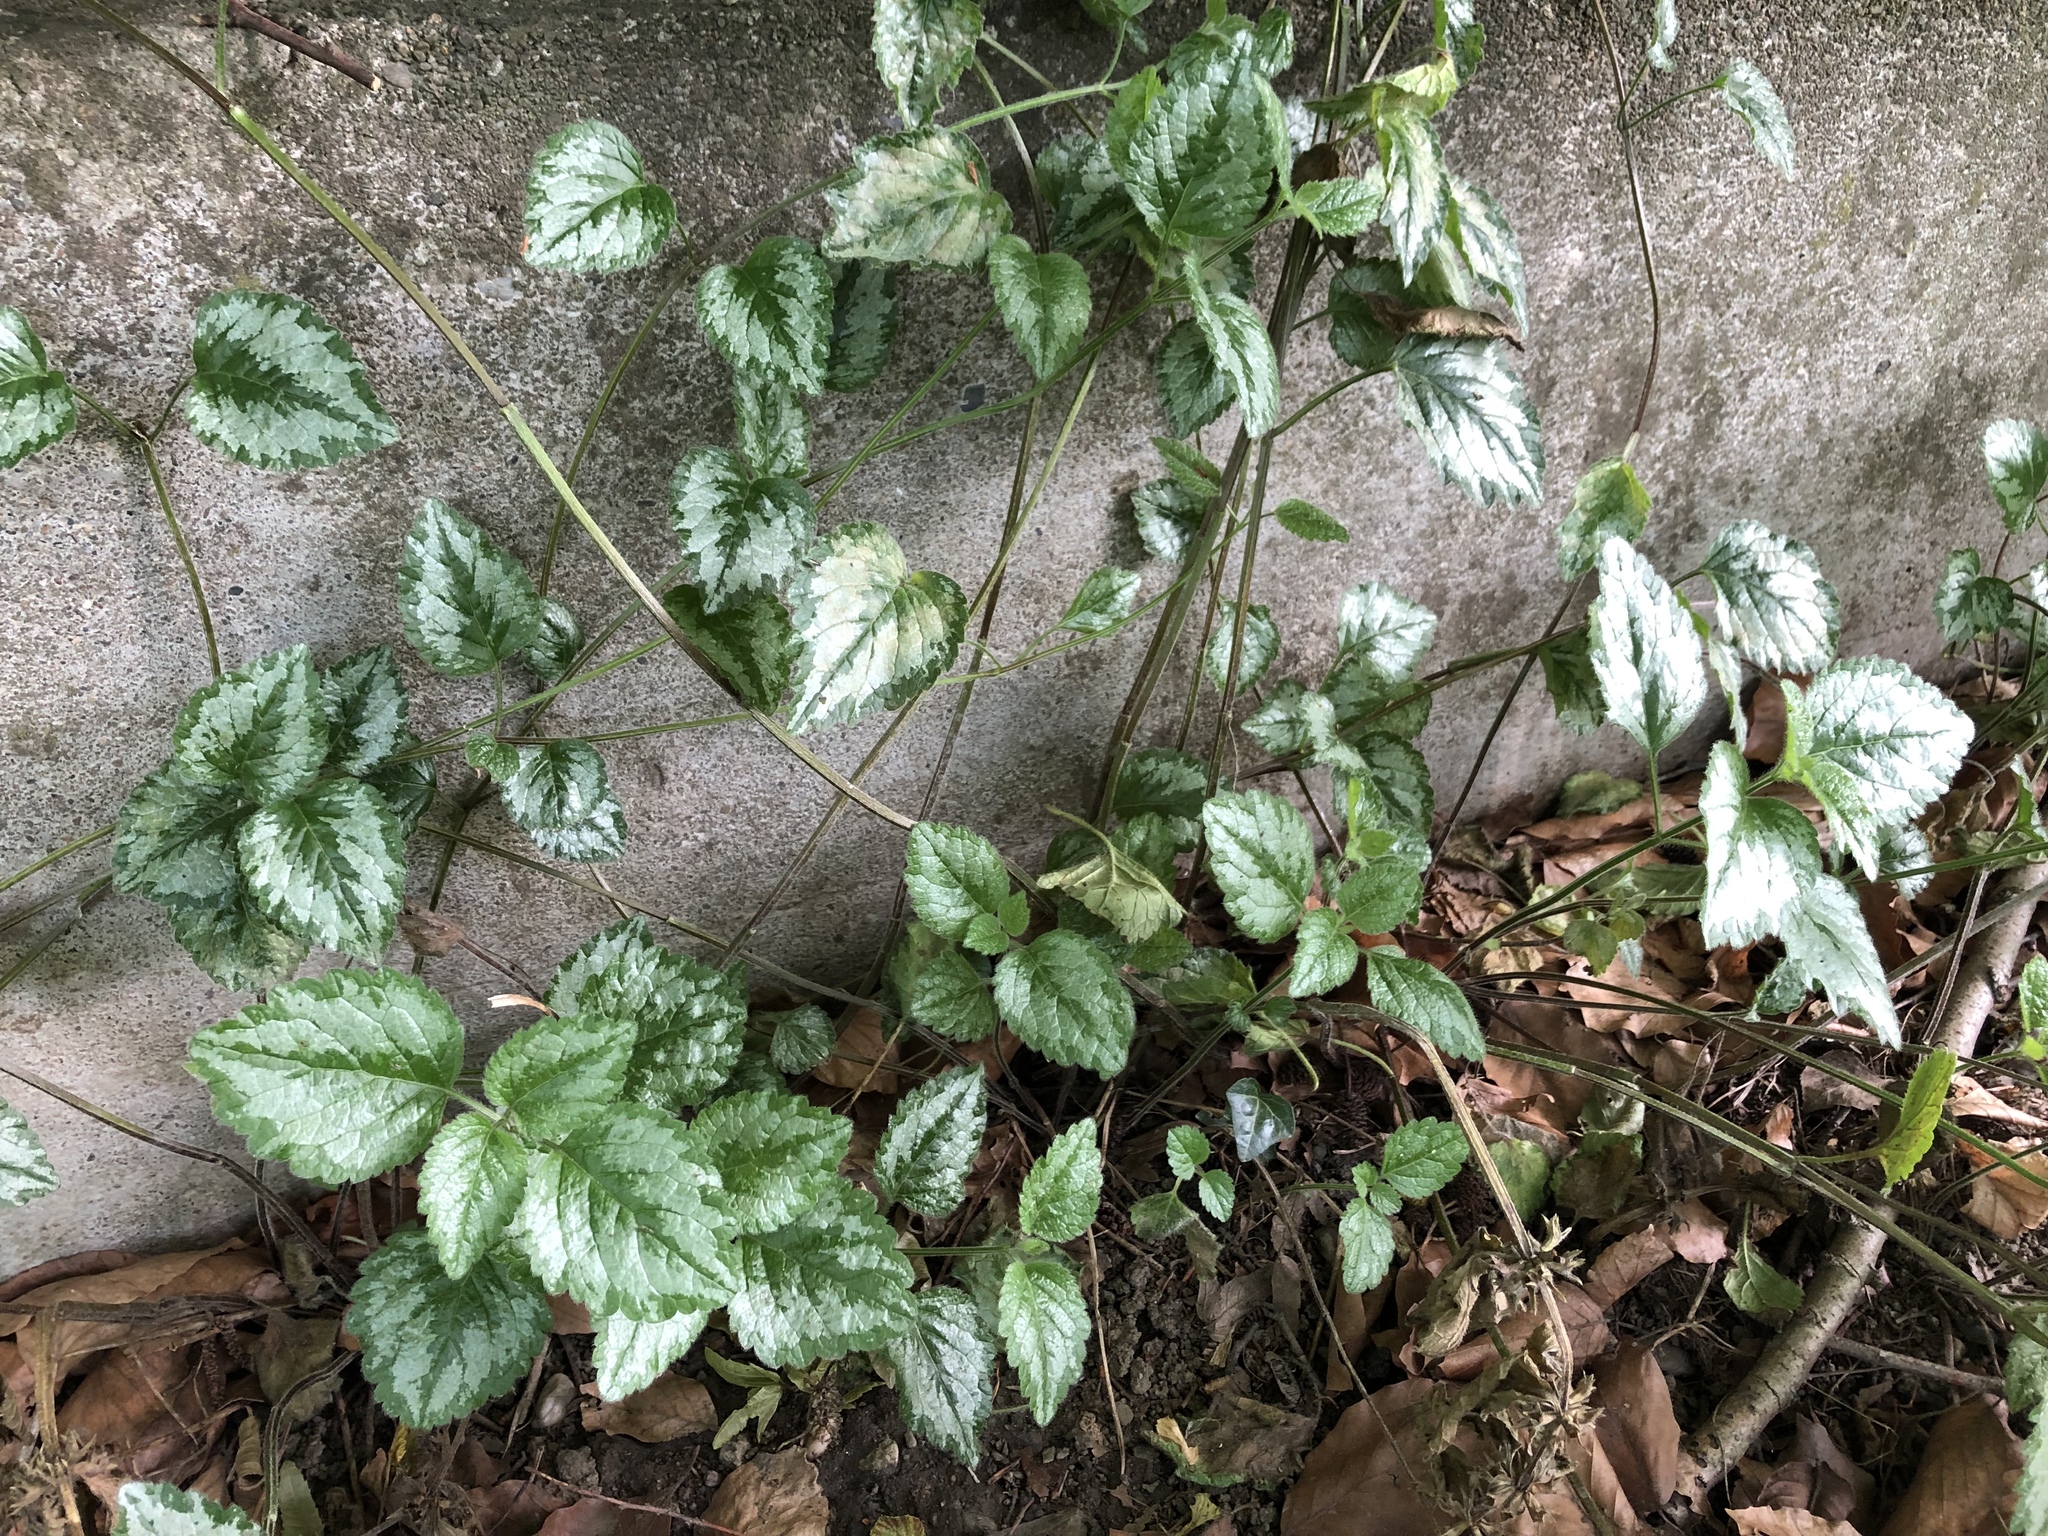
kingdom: Plantae
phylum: Tracheophyta
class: Magnoliopsida
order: Lamiales
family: Lamiaceae
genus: Lamium
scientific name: Lamium galeobdolon
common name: Yellow archangel
